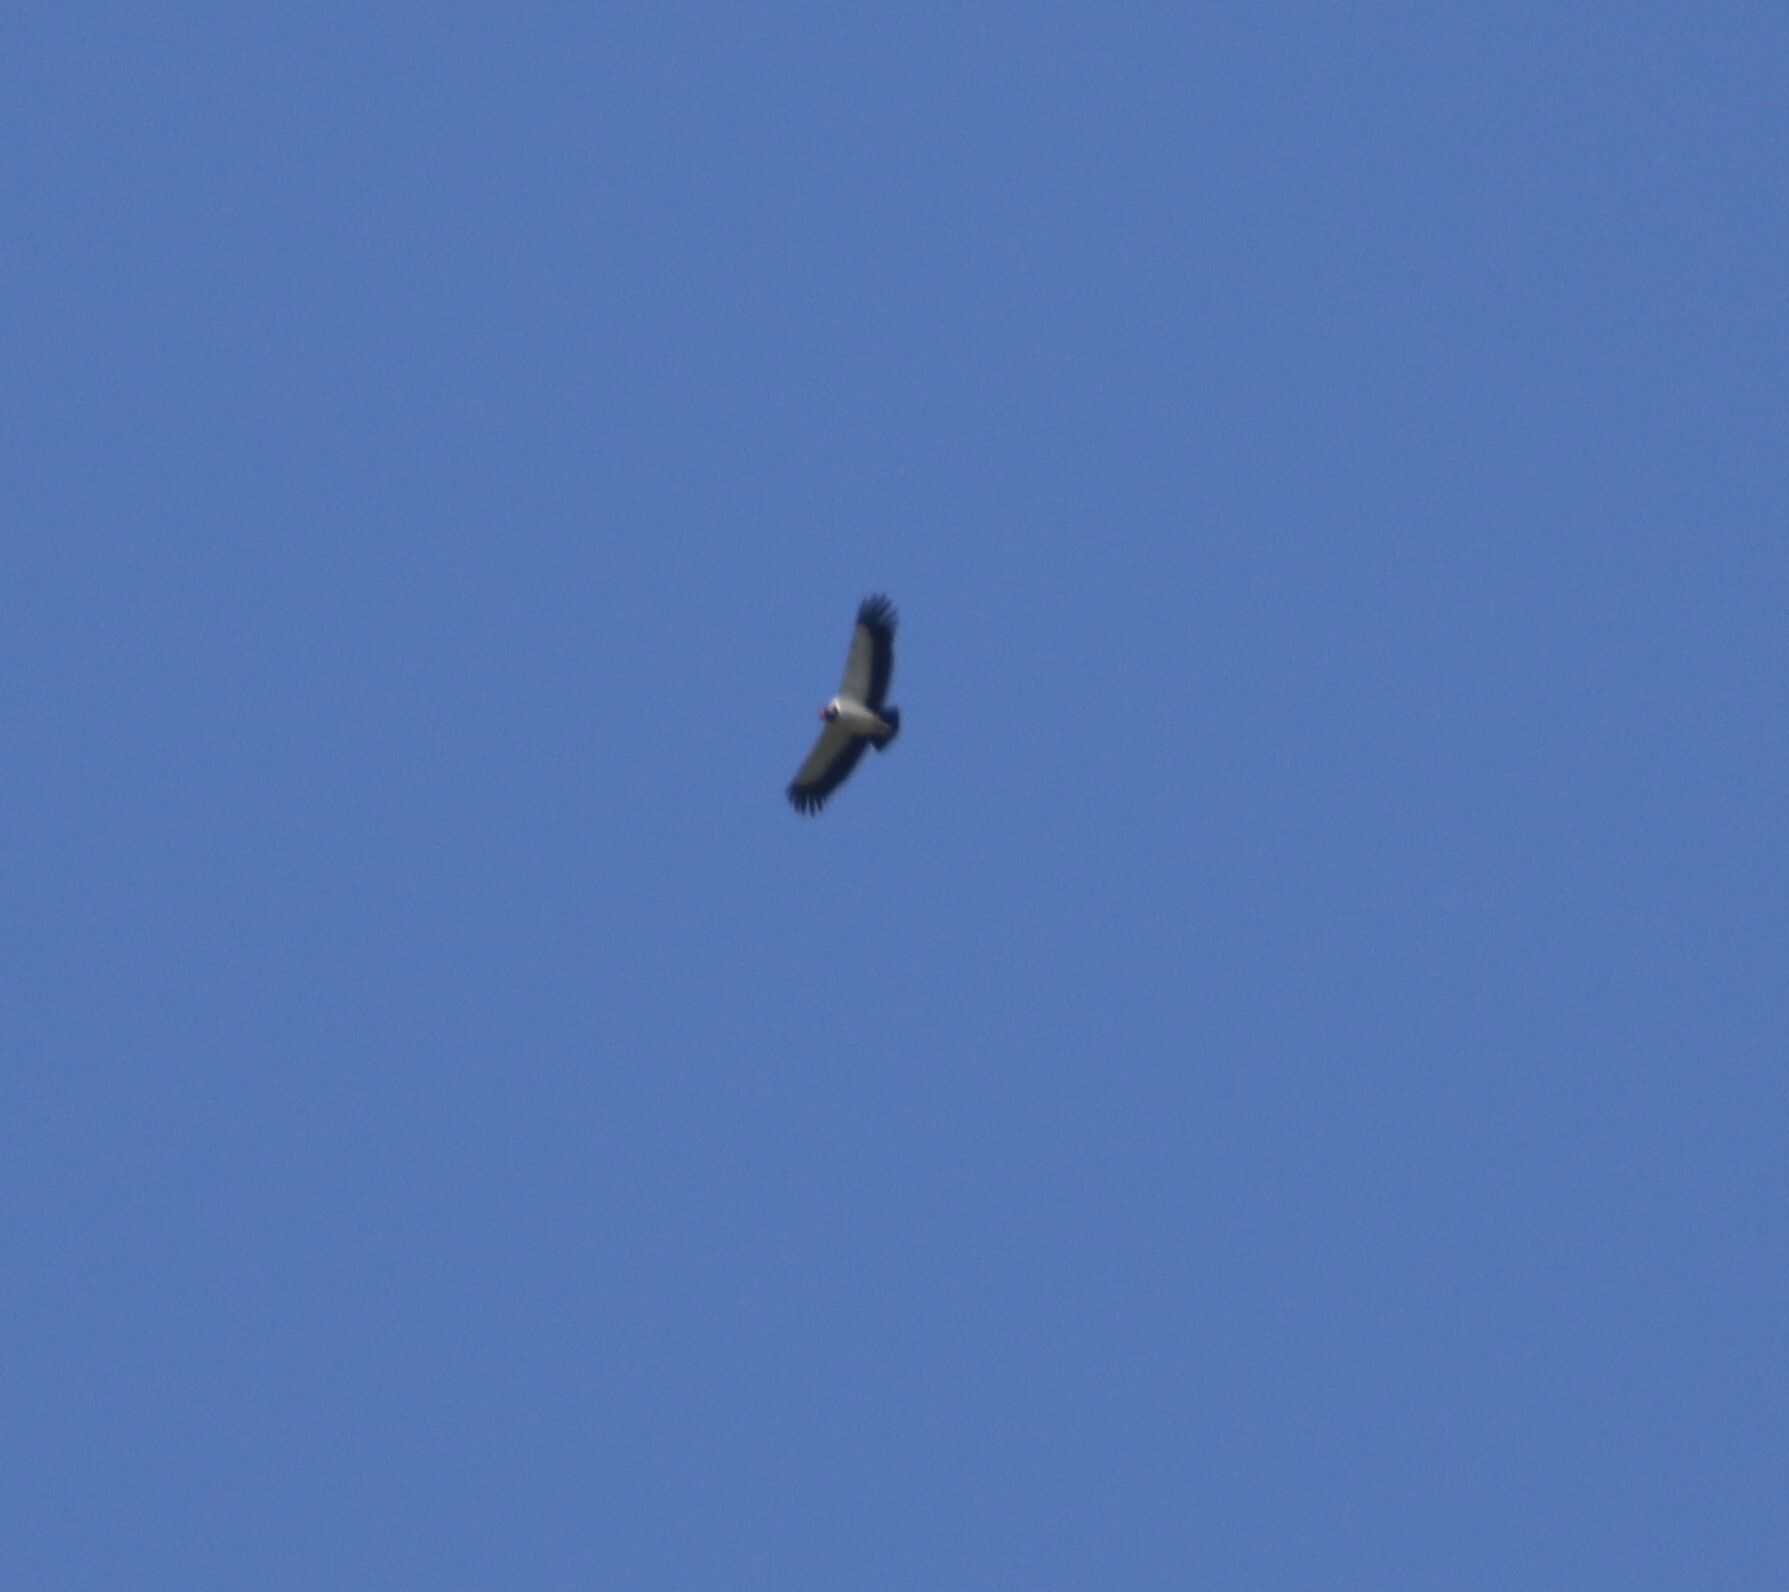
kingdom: Animalia
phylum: Chordata
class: Aves
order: Accipitriformes
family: Cathartidae
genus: Sarcoramphus
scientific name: Sarcoramphus papa
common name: King vulture
